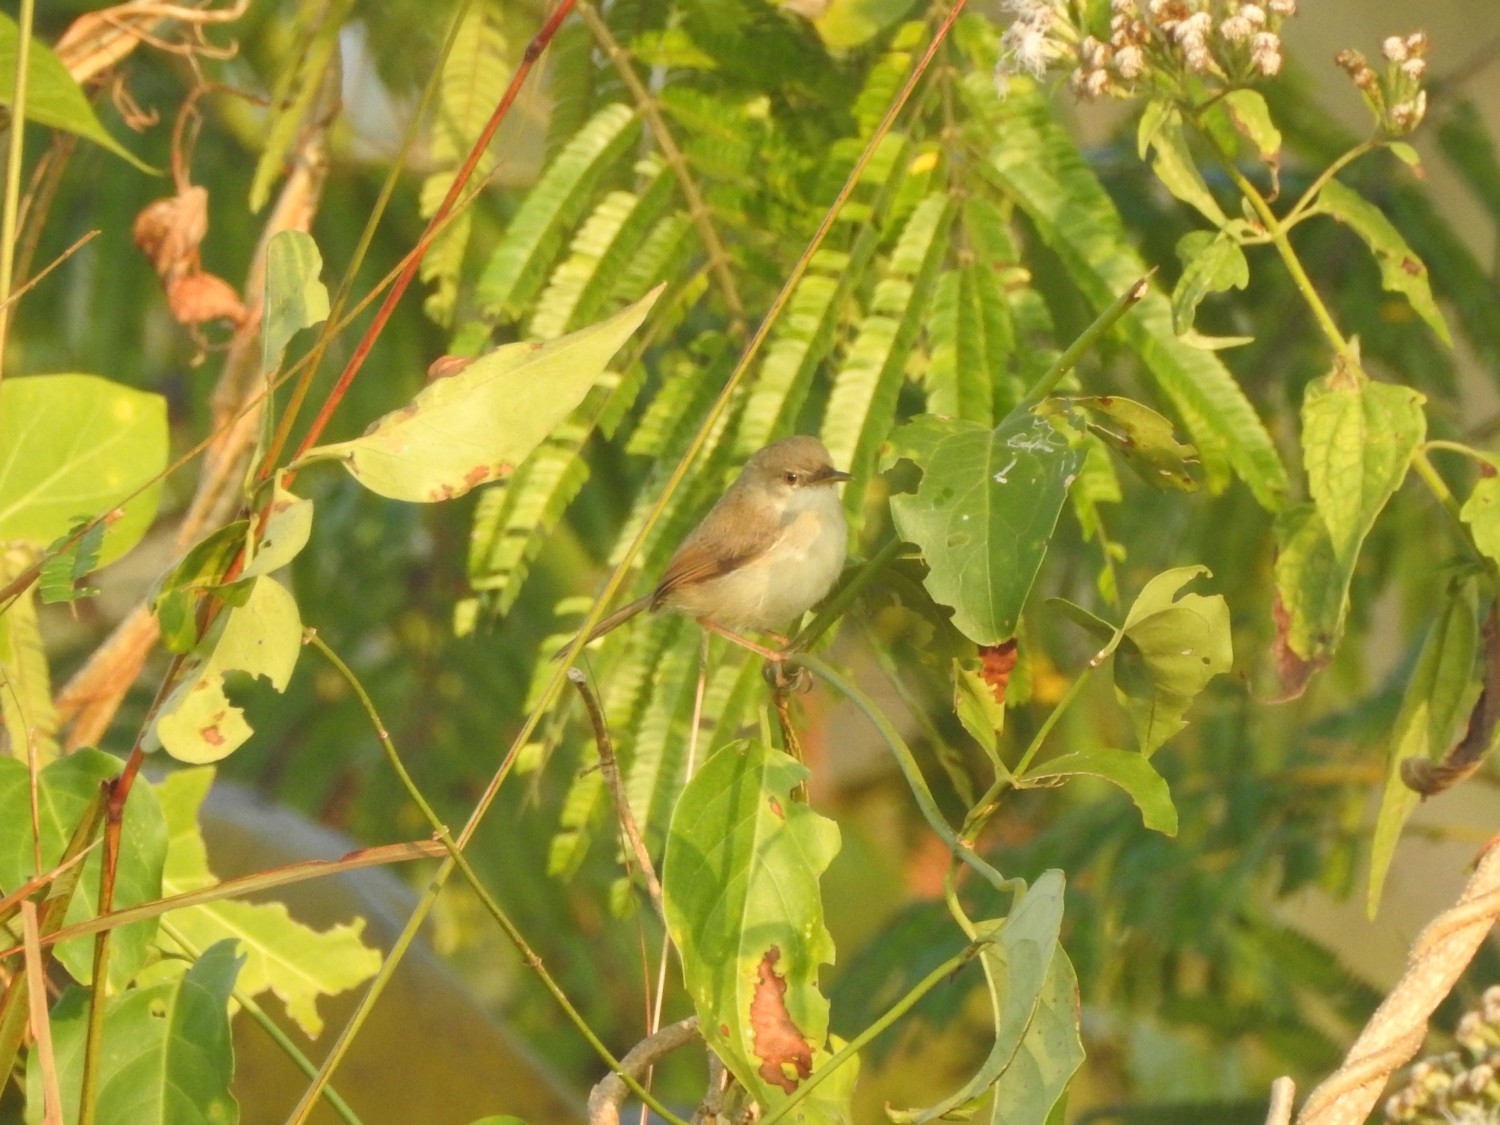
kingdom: Animalia
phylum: Chordata
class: Aves
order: Passeriformes
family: Cisticolidae
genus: Prinia
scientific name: Prinia inornata
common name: Plain prinia
